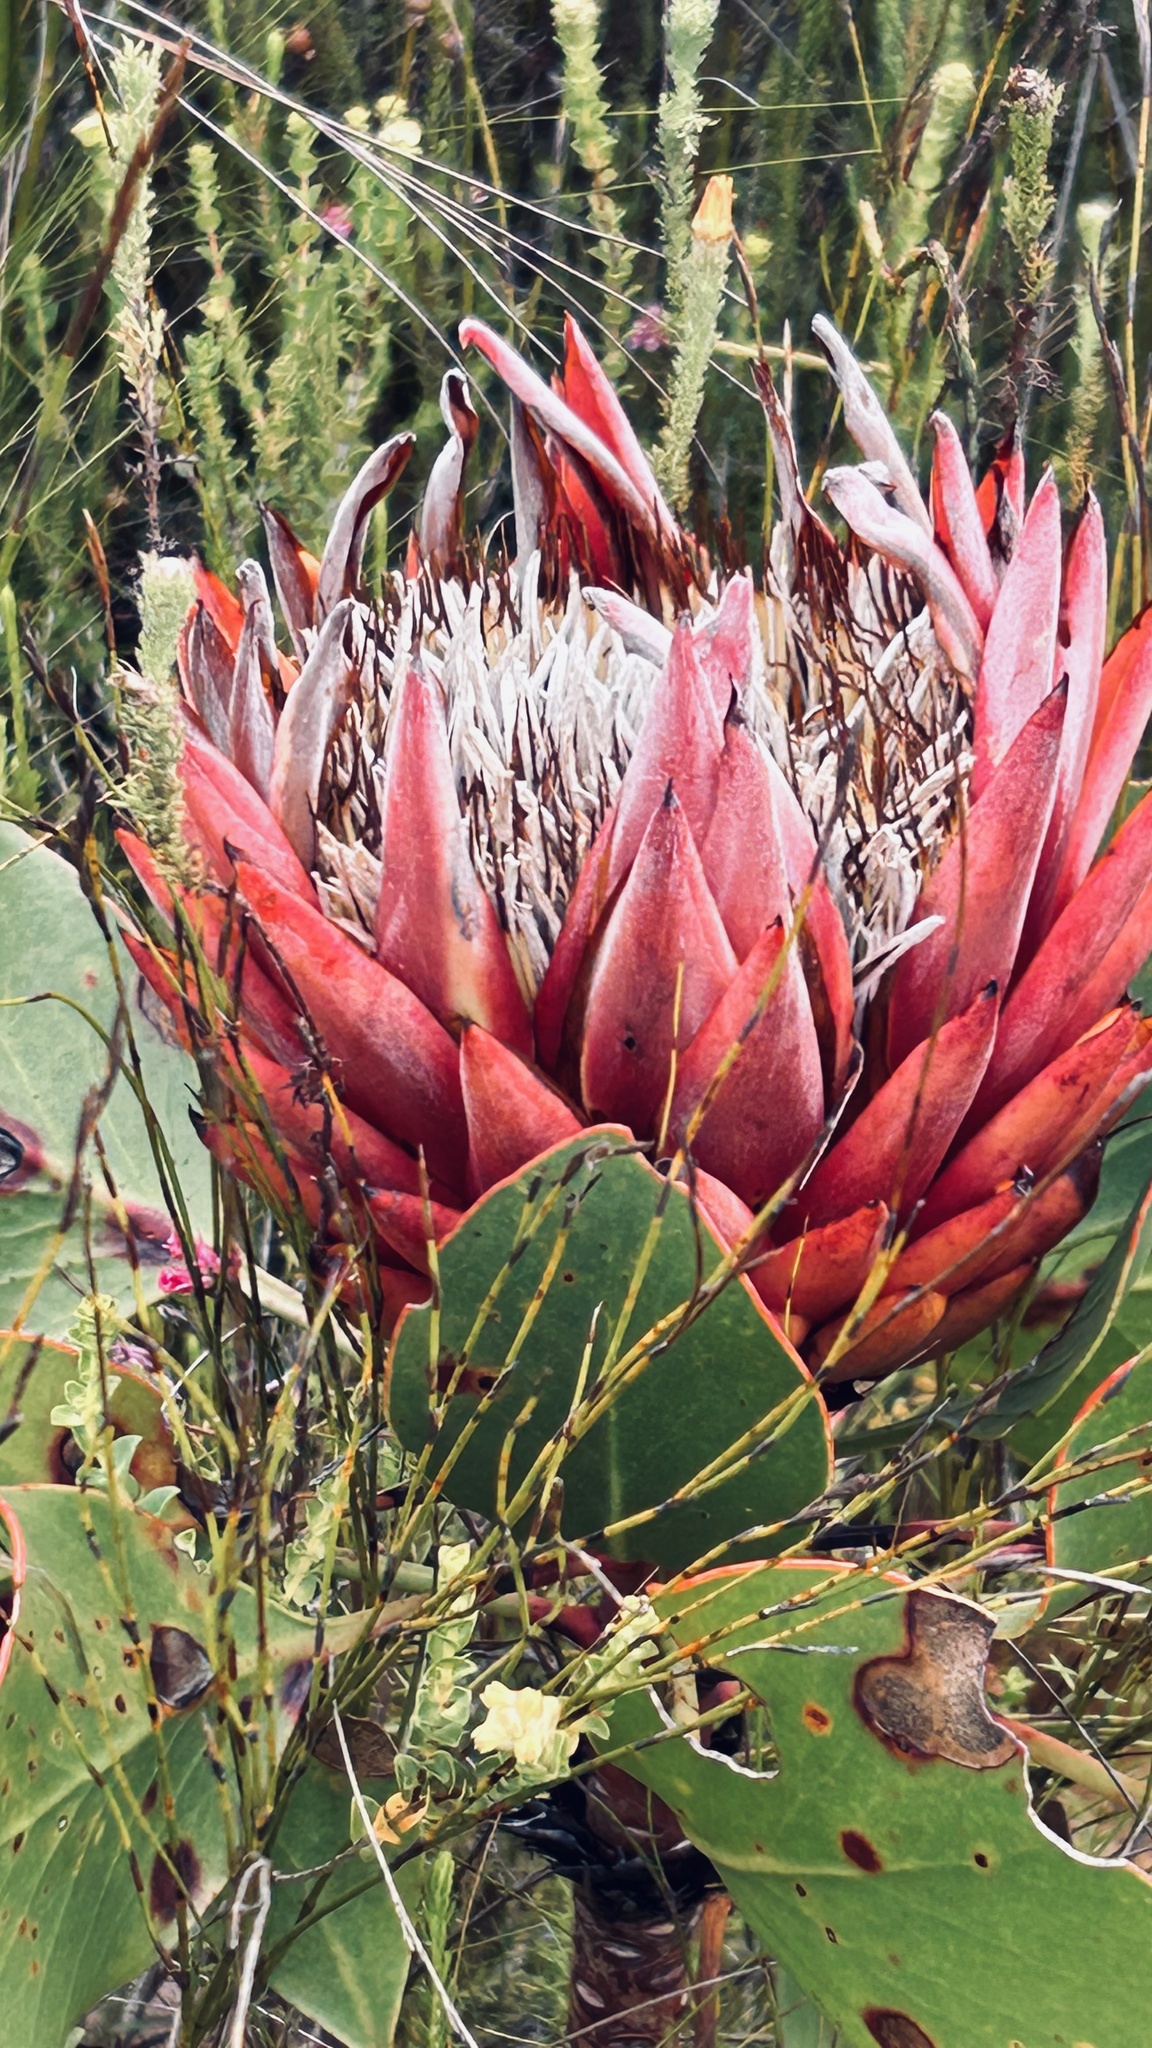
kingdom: Plantae
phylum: Tracheophyta
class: Magnoliopsida
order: Proteales
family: Proteaceae
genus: Protea
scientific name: Protea cynaroides
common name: King protea
